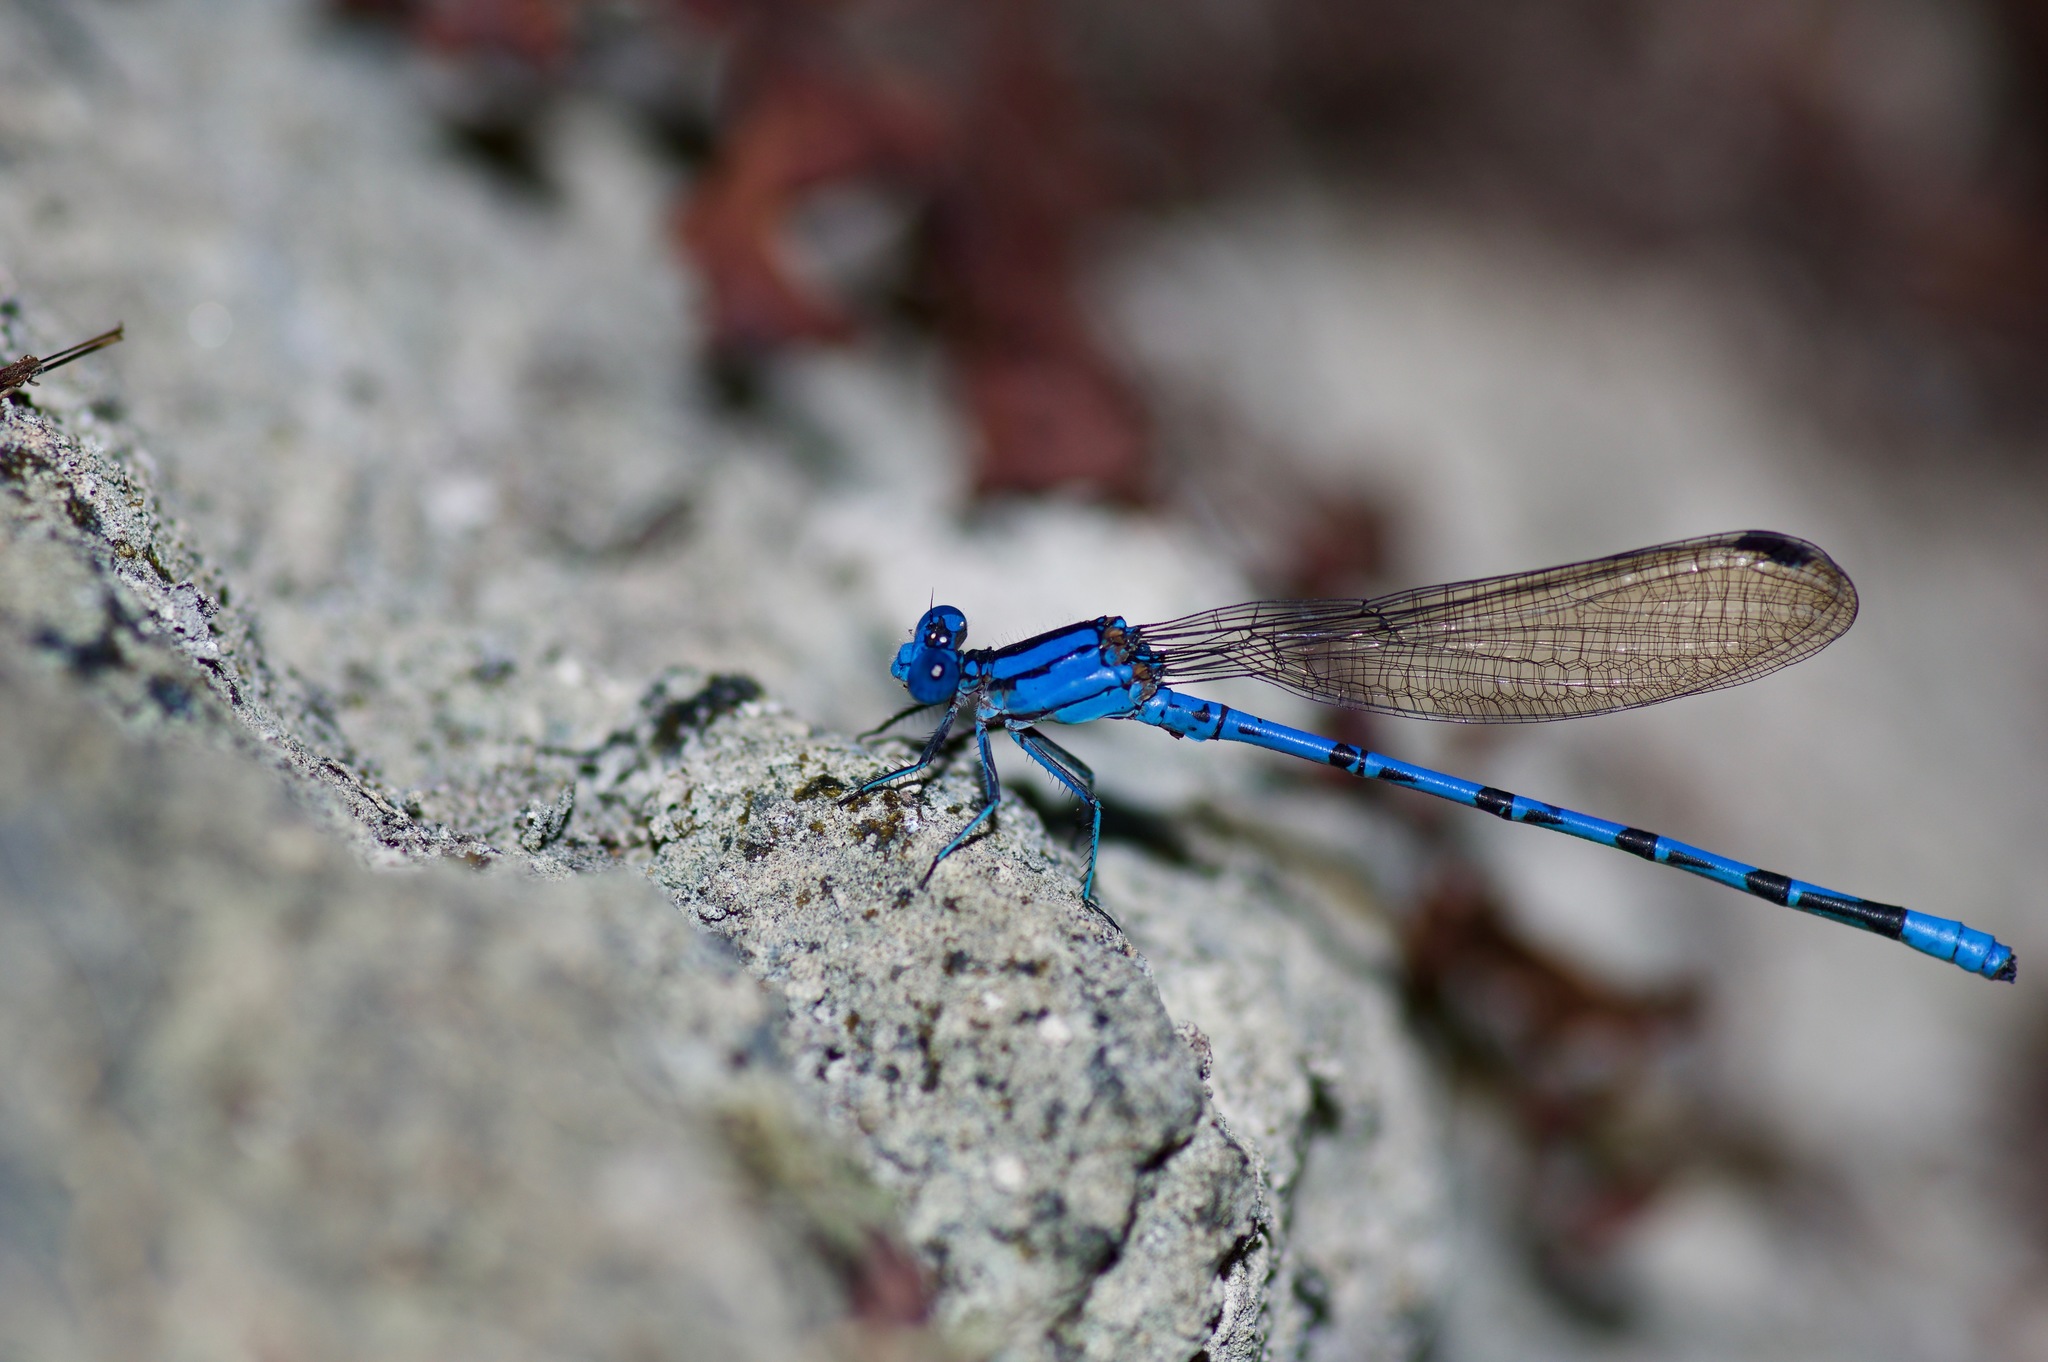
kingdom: Animalia
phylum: Arthropoda
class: Insecta
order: Odonata
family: Coenagrionidae
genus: Argia
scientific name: Argia funebris
